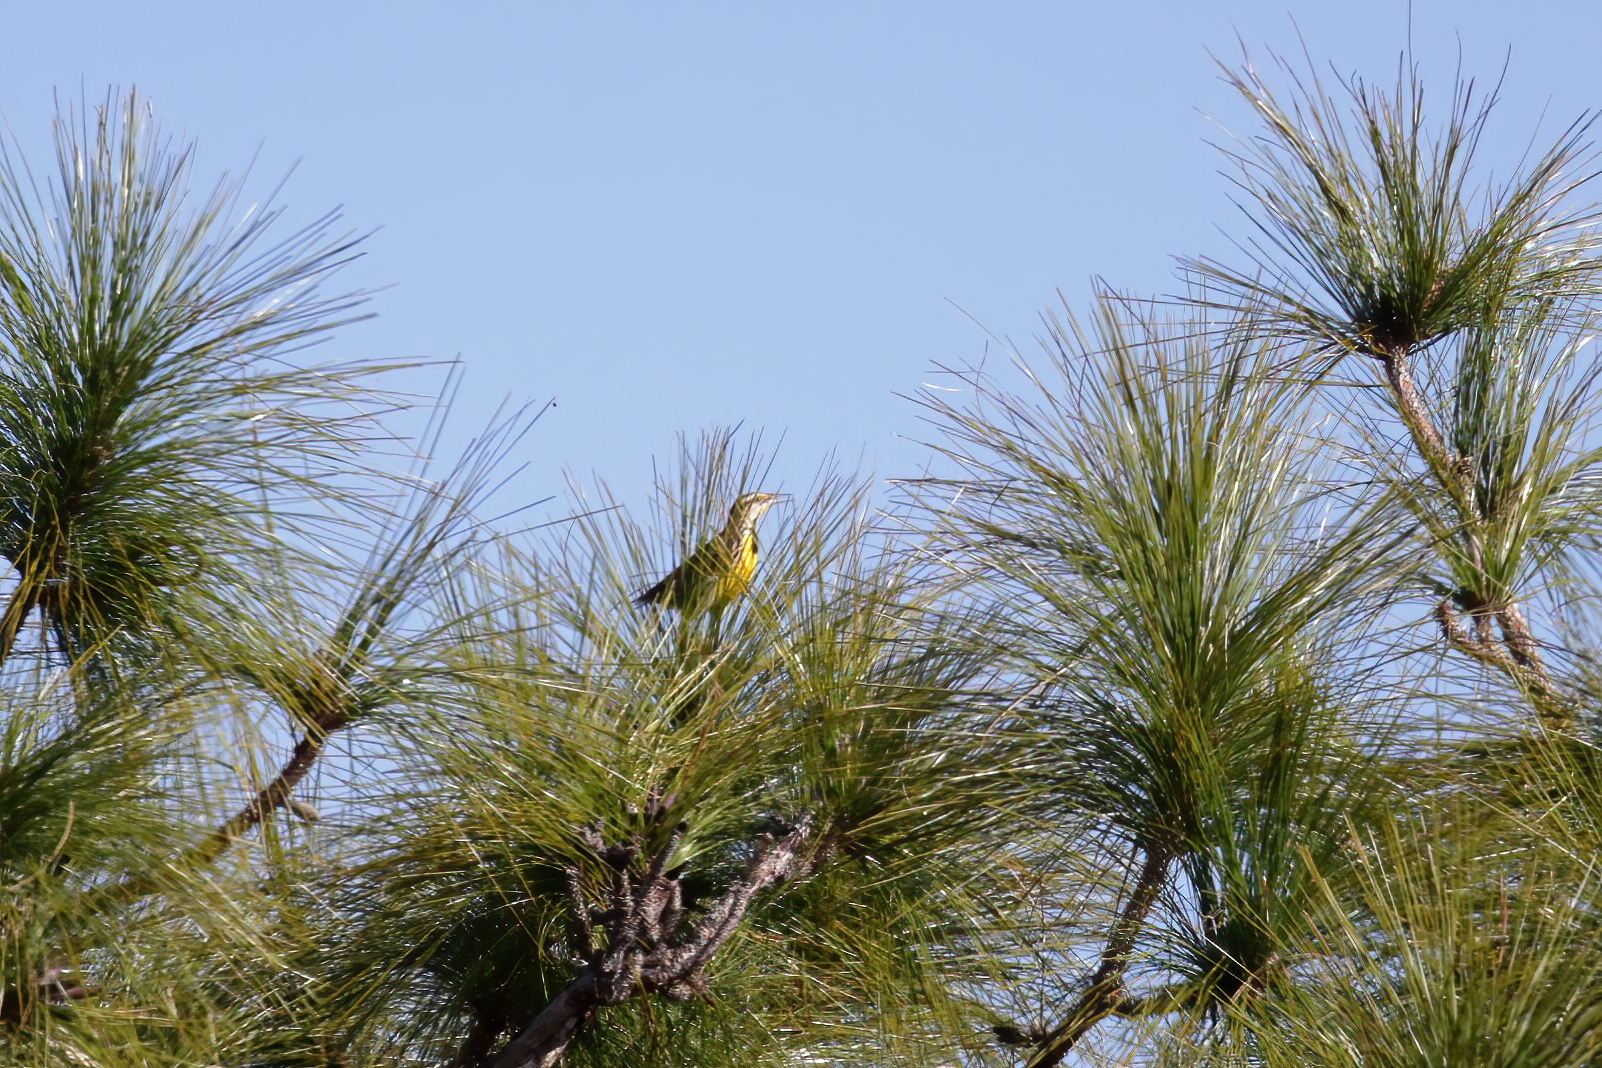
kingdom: Animalia
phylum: Chordata
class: Aves
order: Passeriformes
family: Icteridae
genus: Sturnella
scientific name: Sturnella magna
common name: Eastern meadowlark
